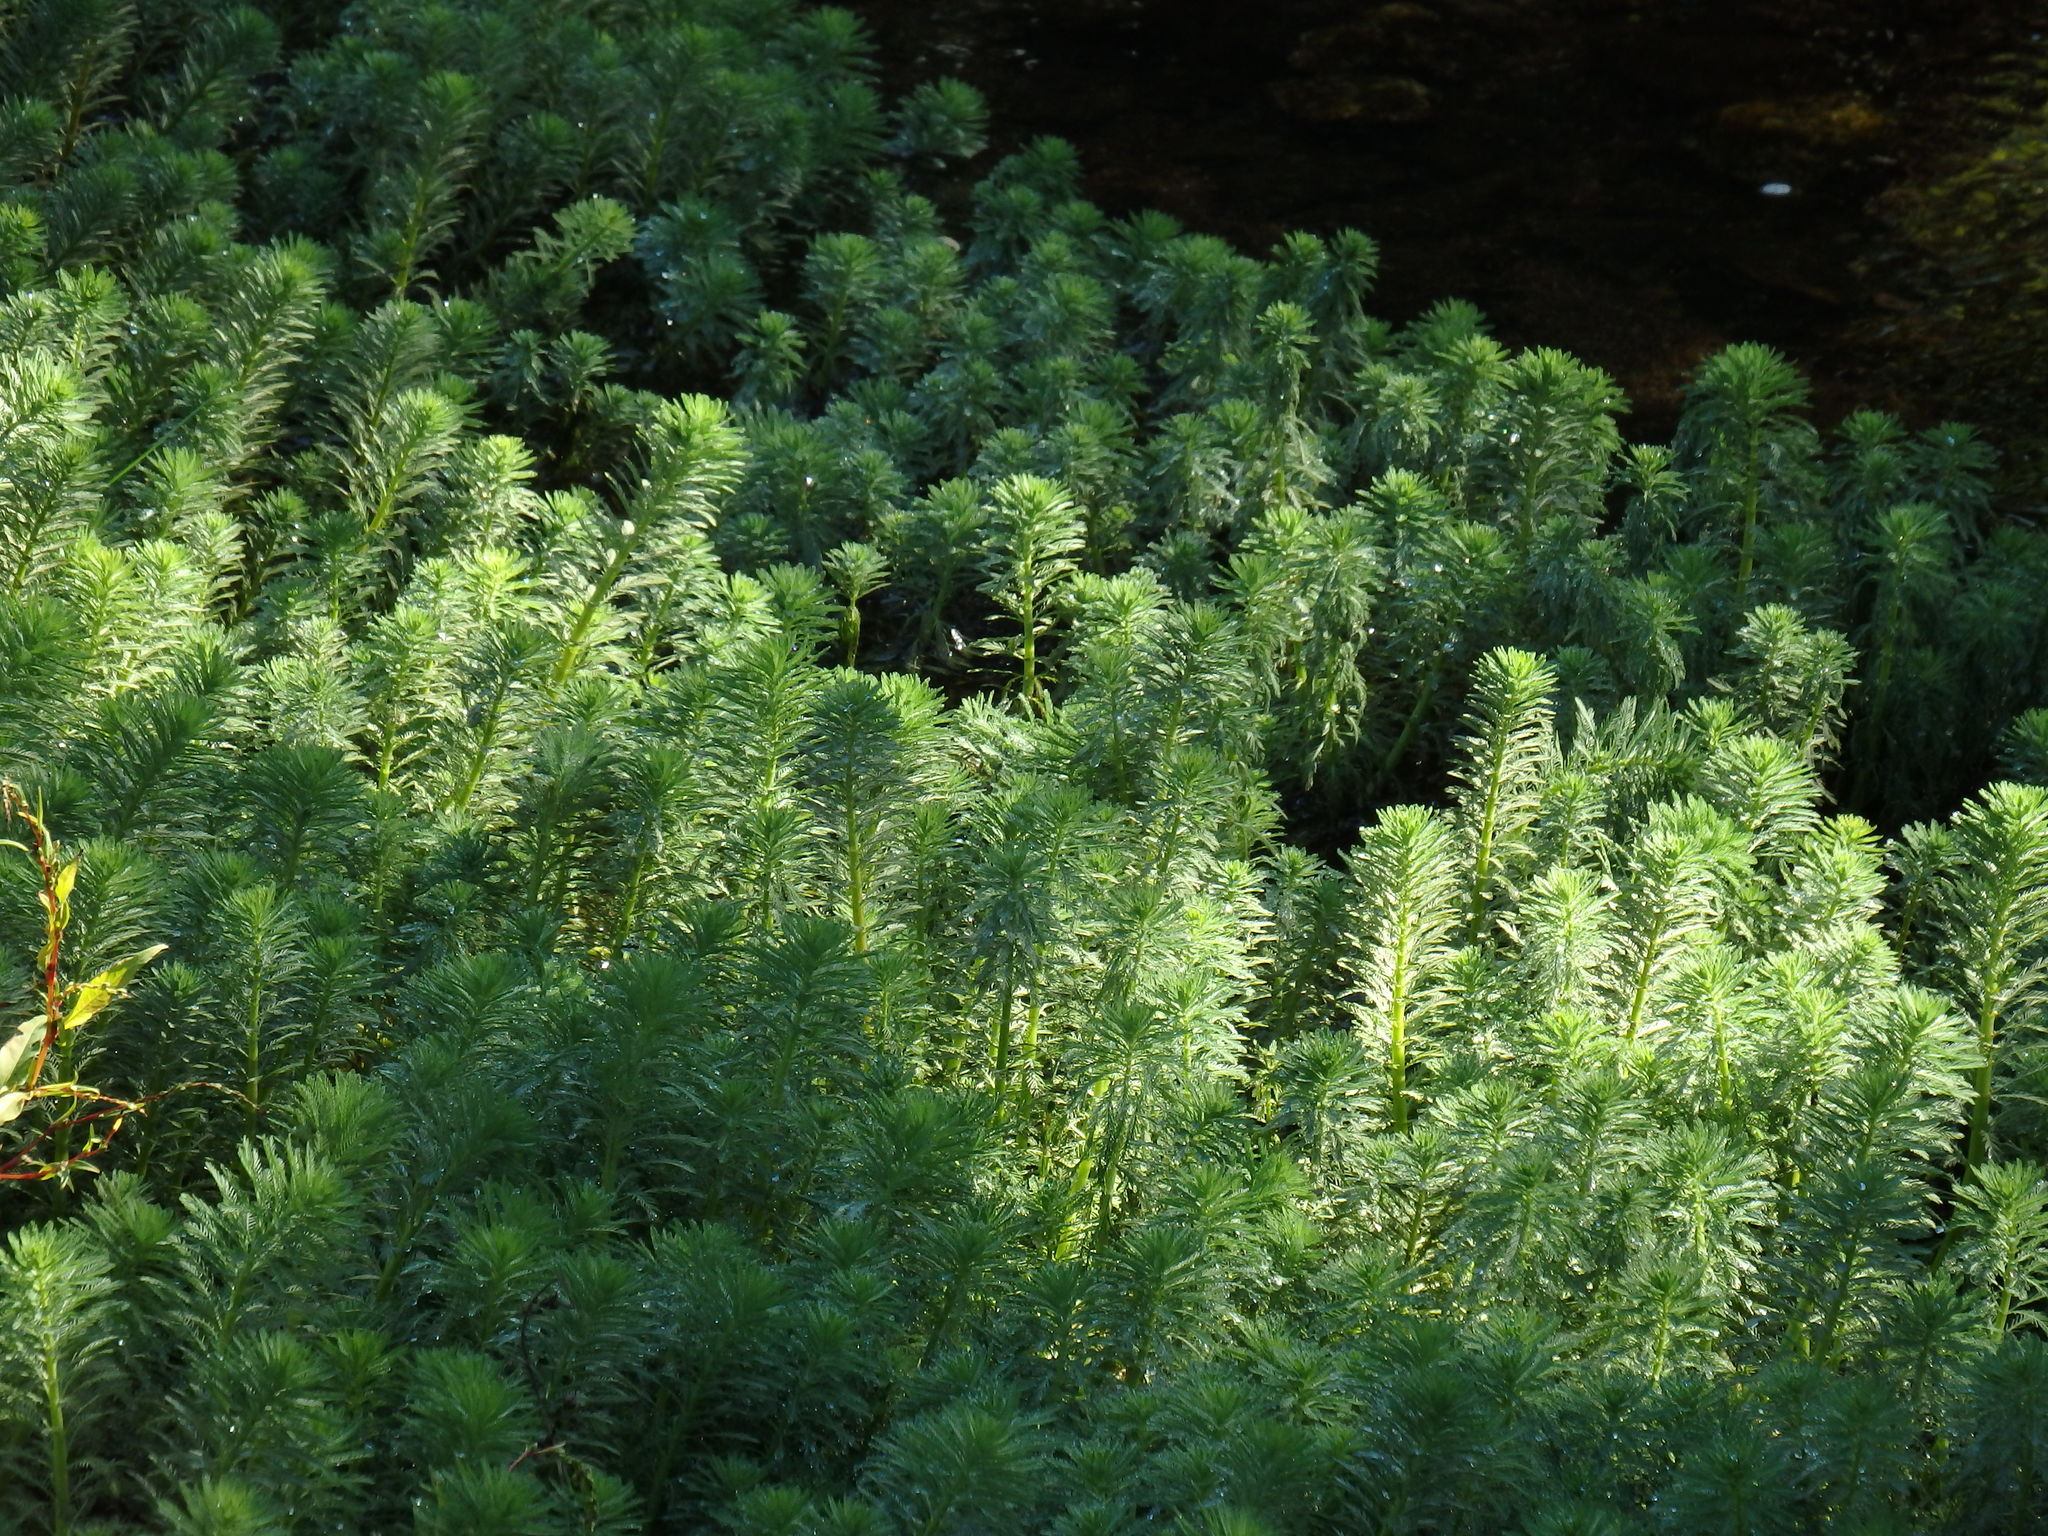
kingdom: Plantae
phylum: Tracheophyta
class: Magnoliopsida
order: Saxifragales
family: Haloragaceae
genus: Myriophyllum
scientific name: Myriophyllum aquaticum
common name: Parrot's feather
